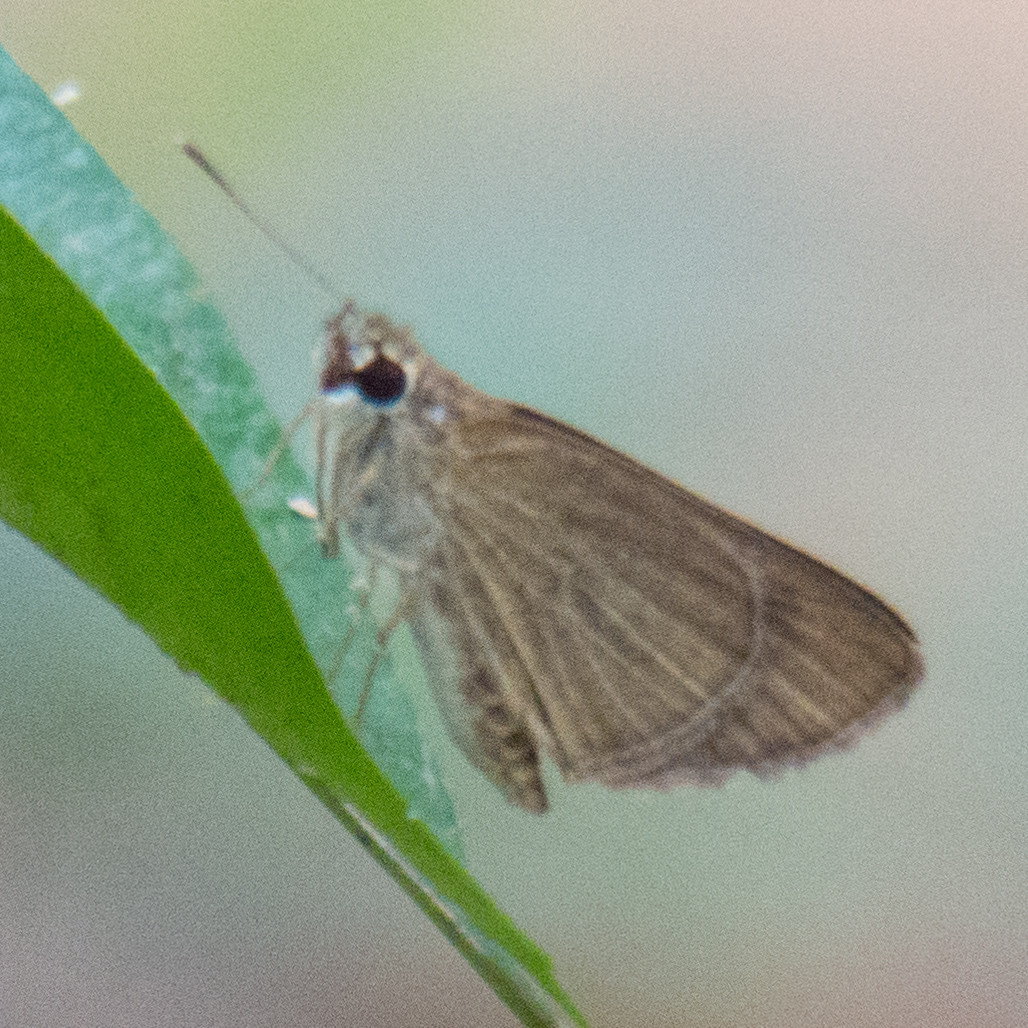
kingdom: Animalia
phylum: Arthropoda
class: Insecta
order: Lepidoptera
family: Hesperiidae
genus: Suada
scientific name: Suada swerga
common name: Grass bob
